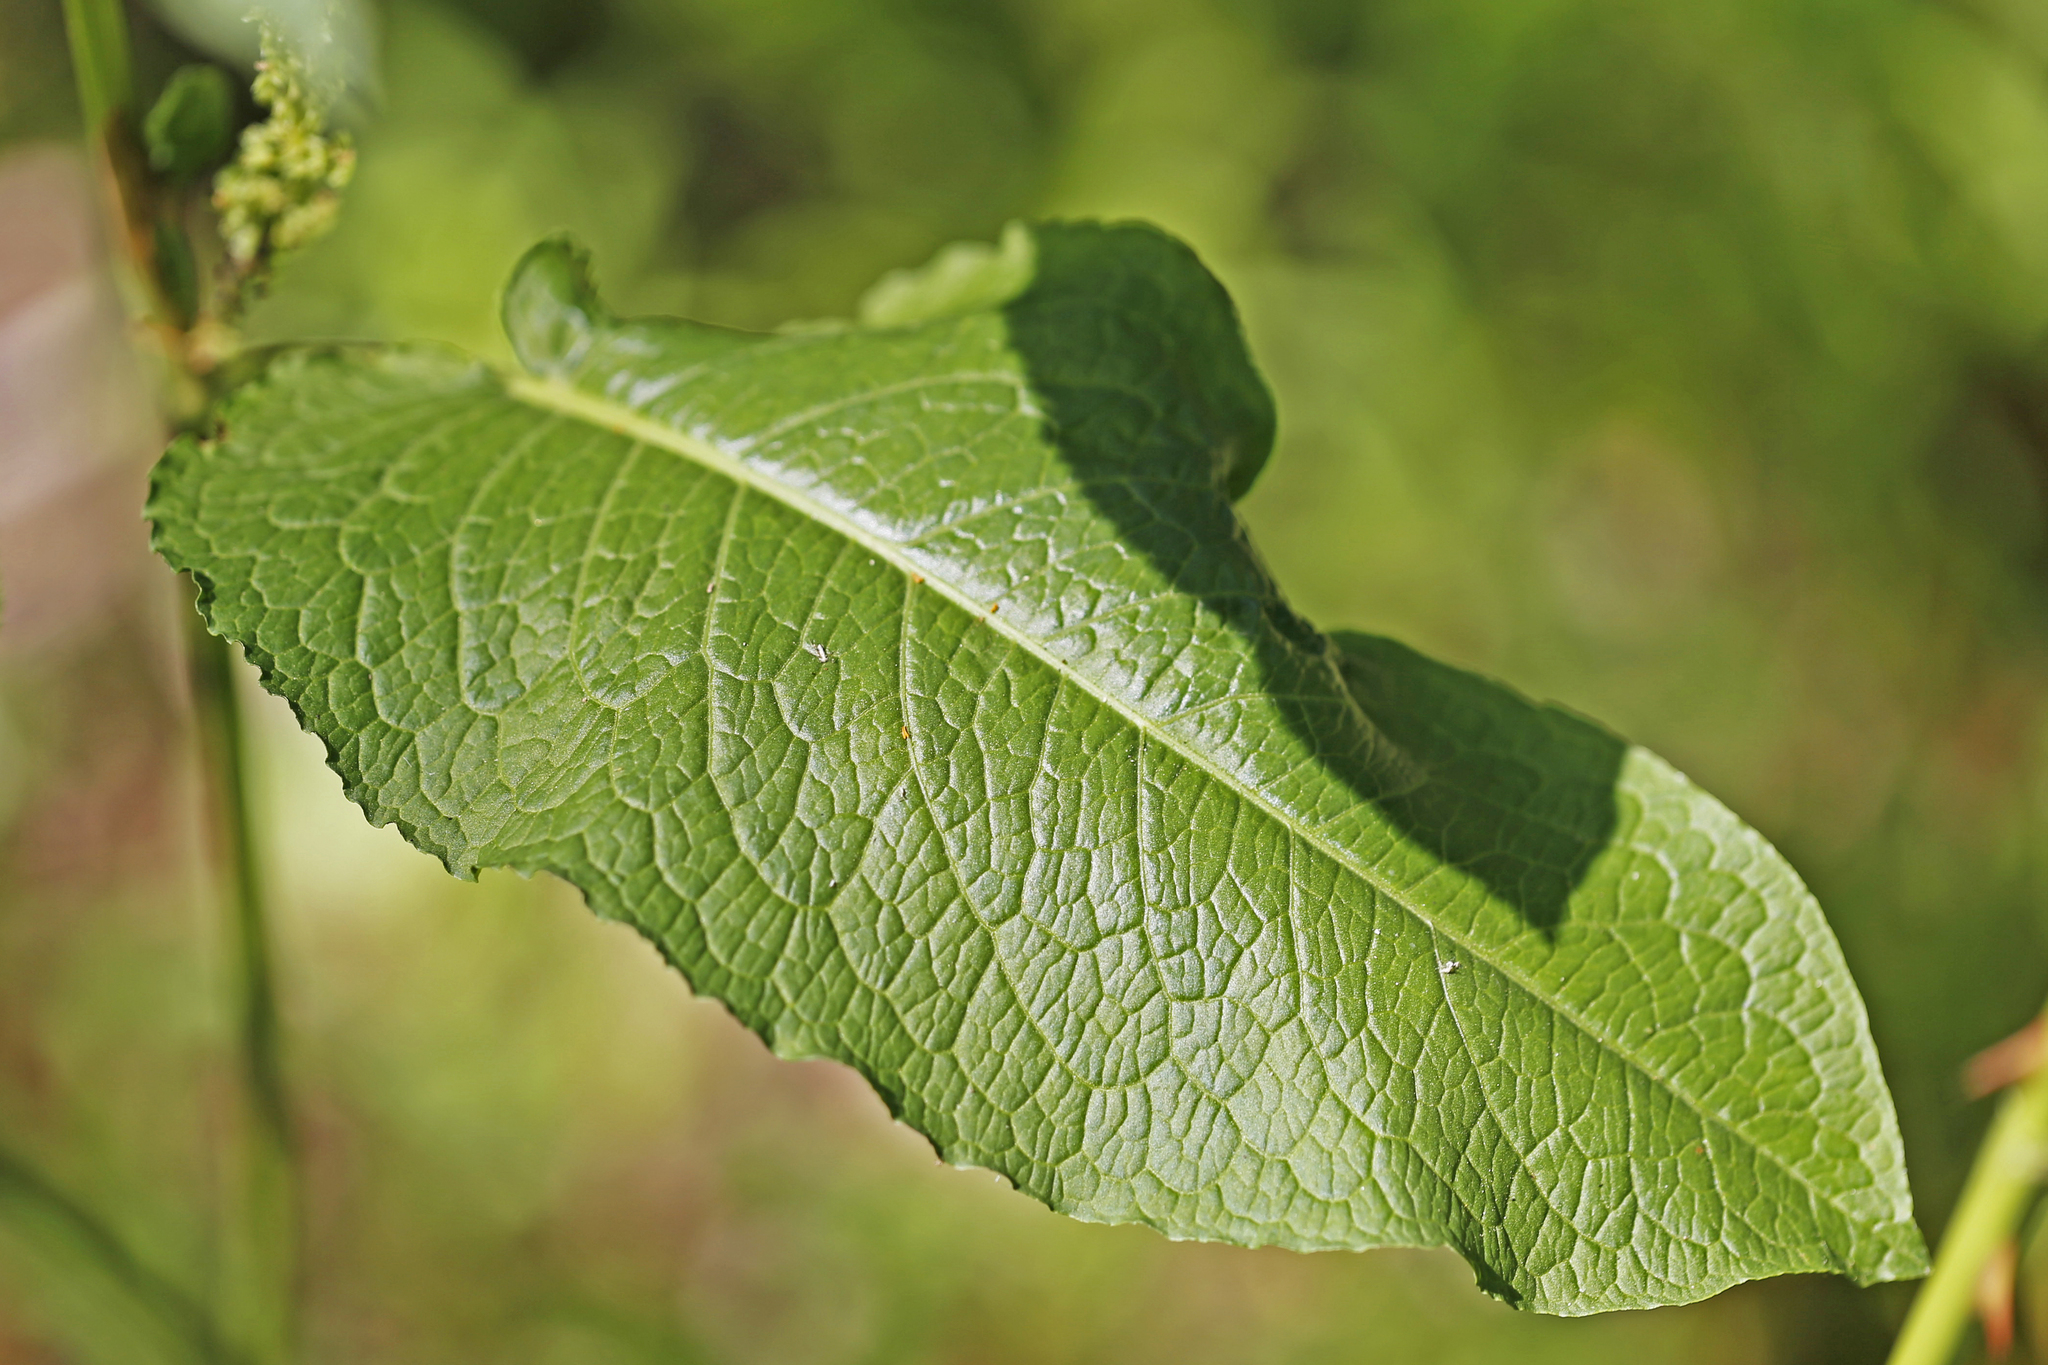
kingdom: Plantae
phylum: Tracheophyta
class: Magnoliopsida
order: Caryophyllales
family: Polygonaceae
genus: Rumex
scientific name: Rumex obtusifolius
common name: Bitter dock
